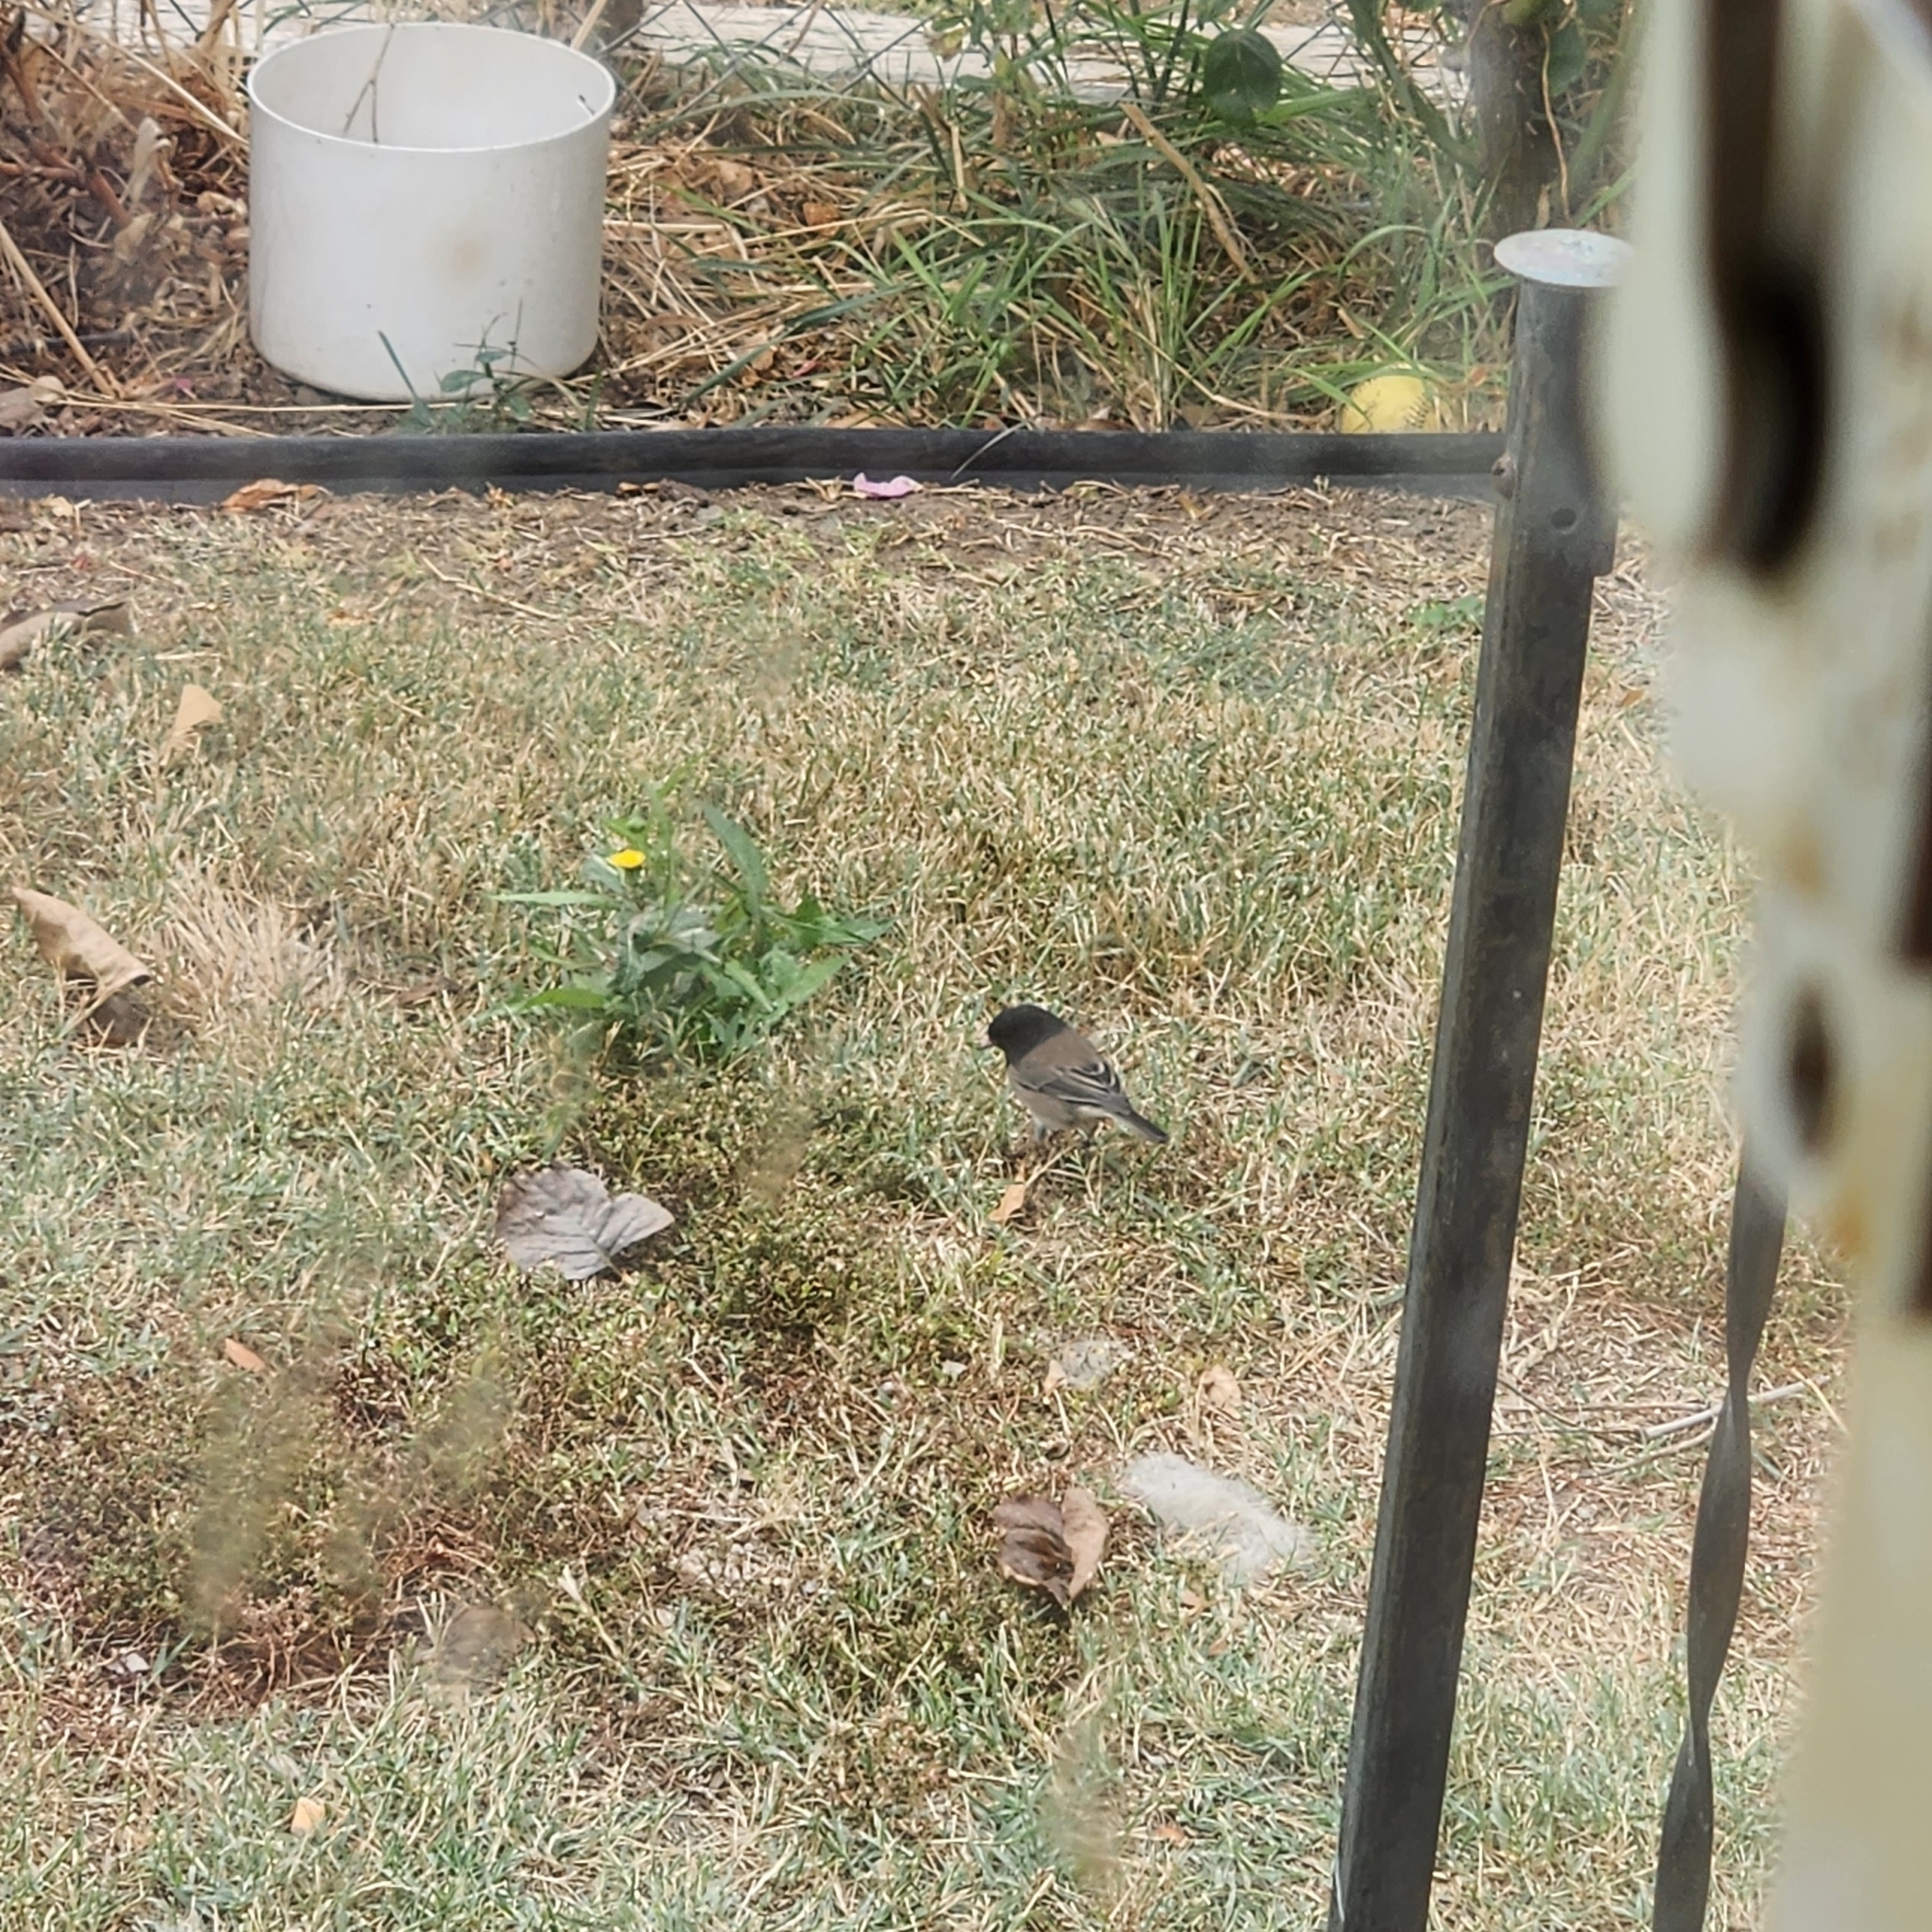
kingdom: Animalia
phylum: Chordata
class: Aves
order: Passeriformes
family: Passerellidae
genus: Junco
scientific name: Junco hyemalis
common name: Dark-eyed junco
